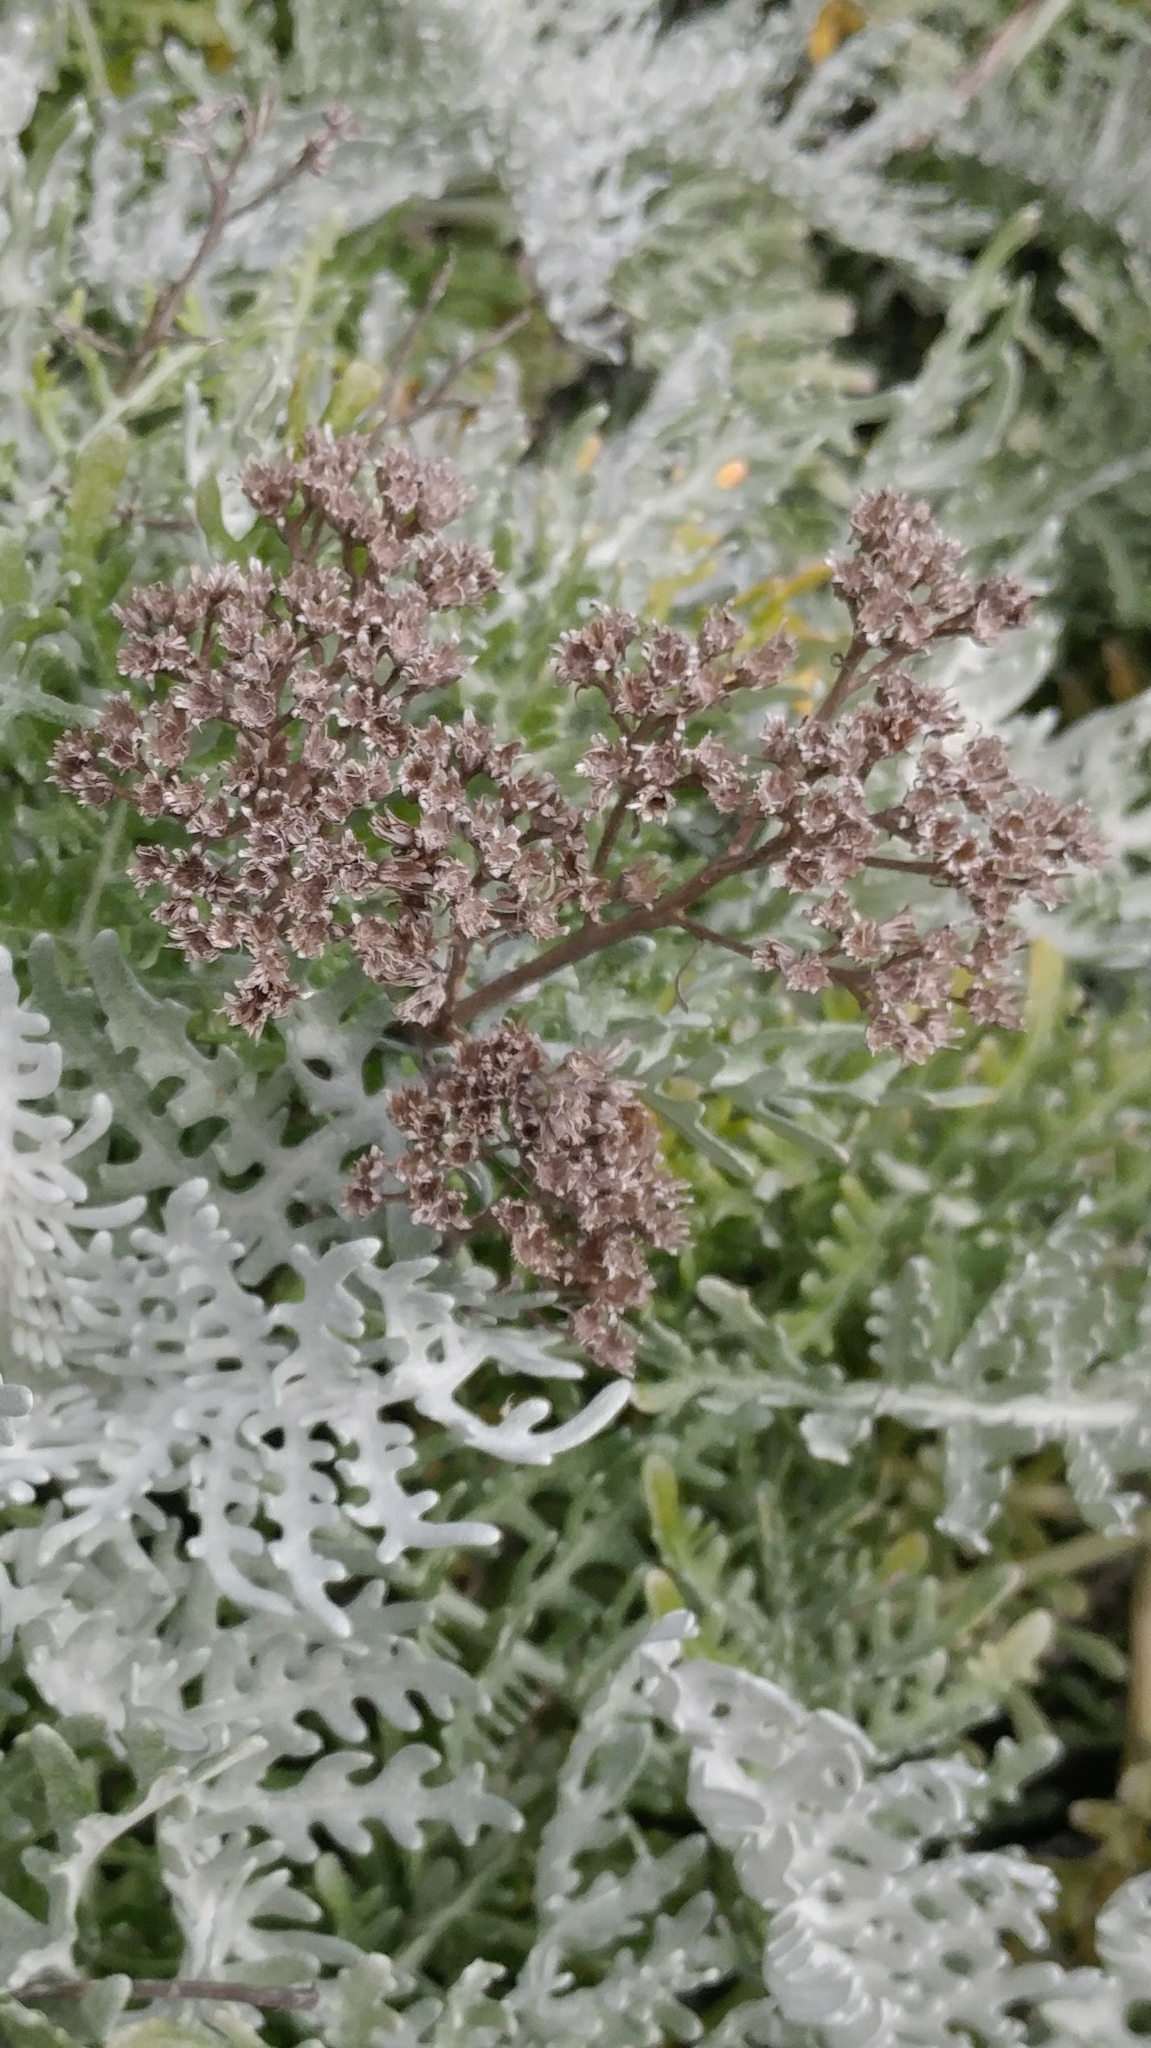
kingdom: Plantae
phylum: Tracheophyta
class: Magnoliopsida
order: Asterales
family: Asteraceae
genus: Constancea
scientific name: Constancea nevinii
